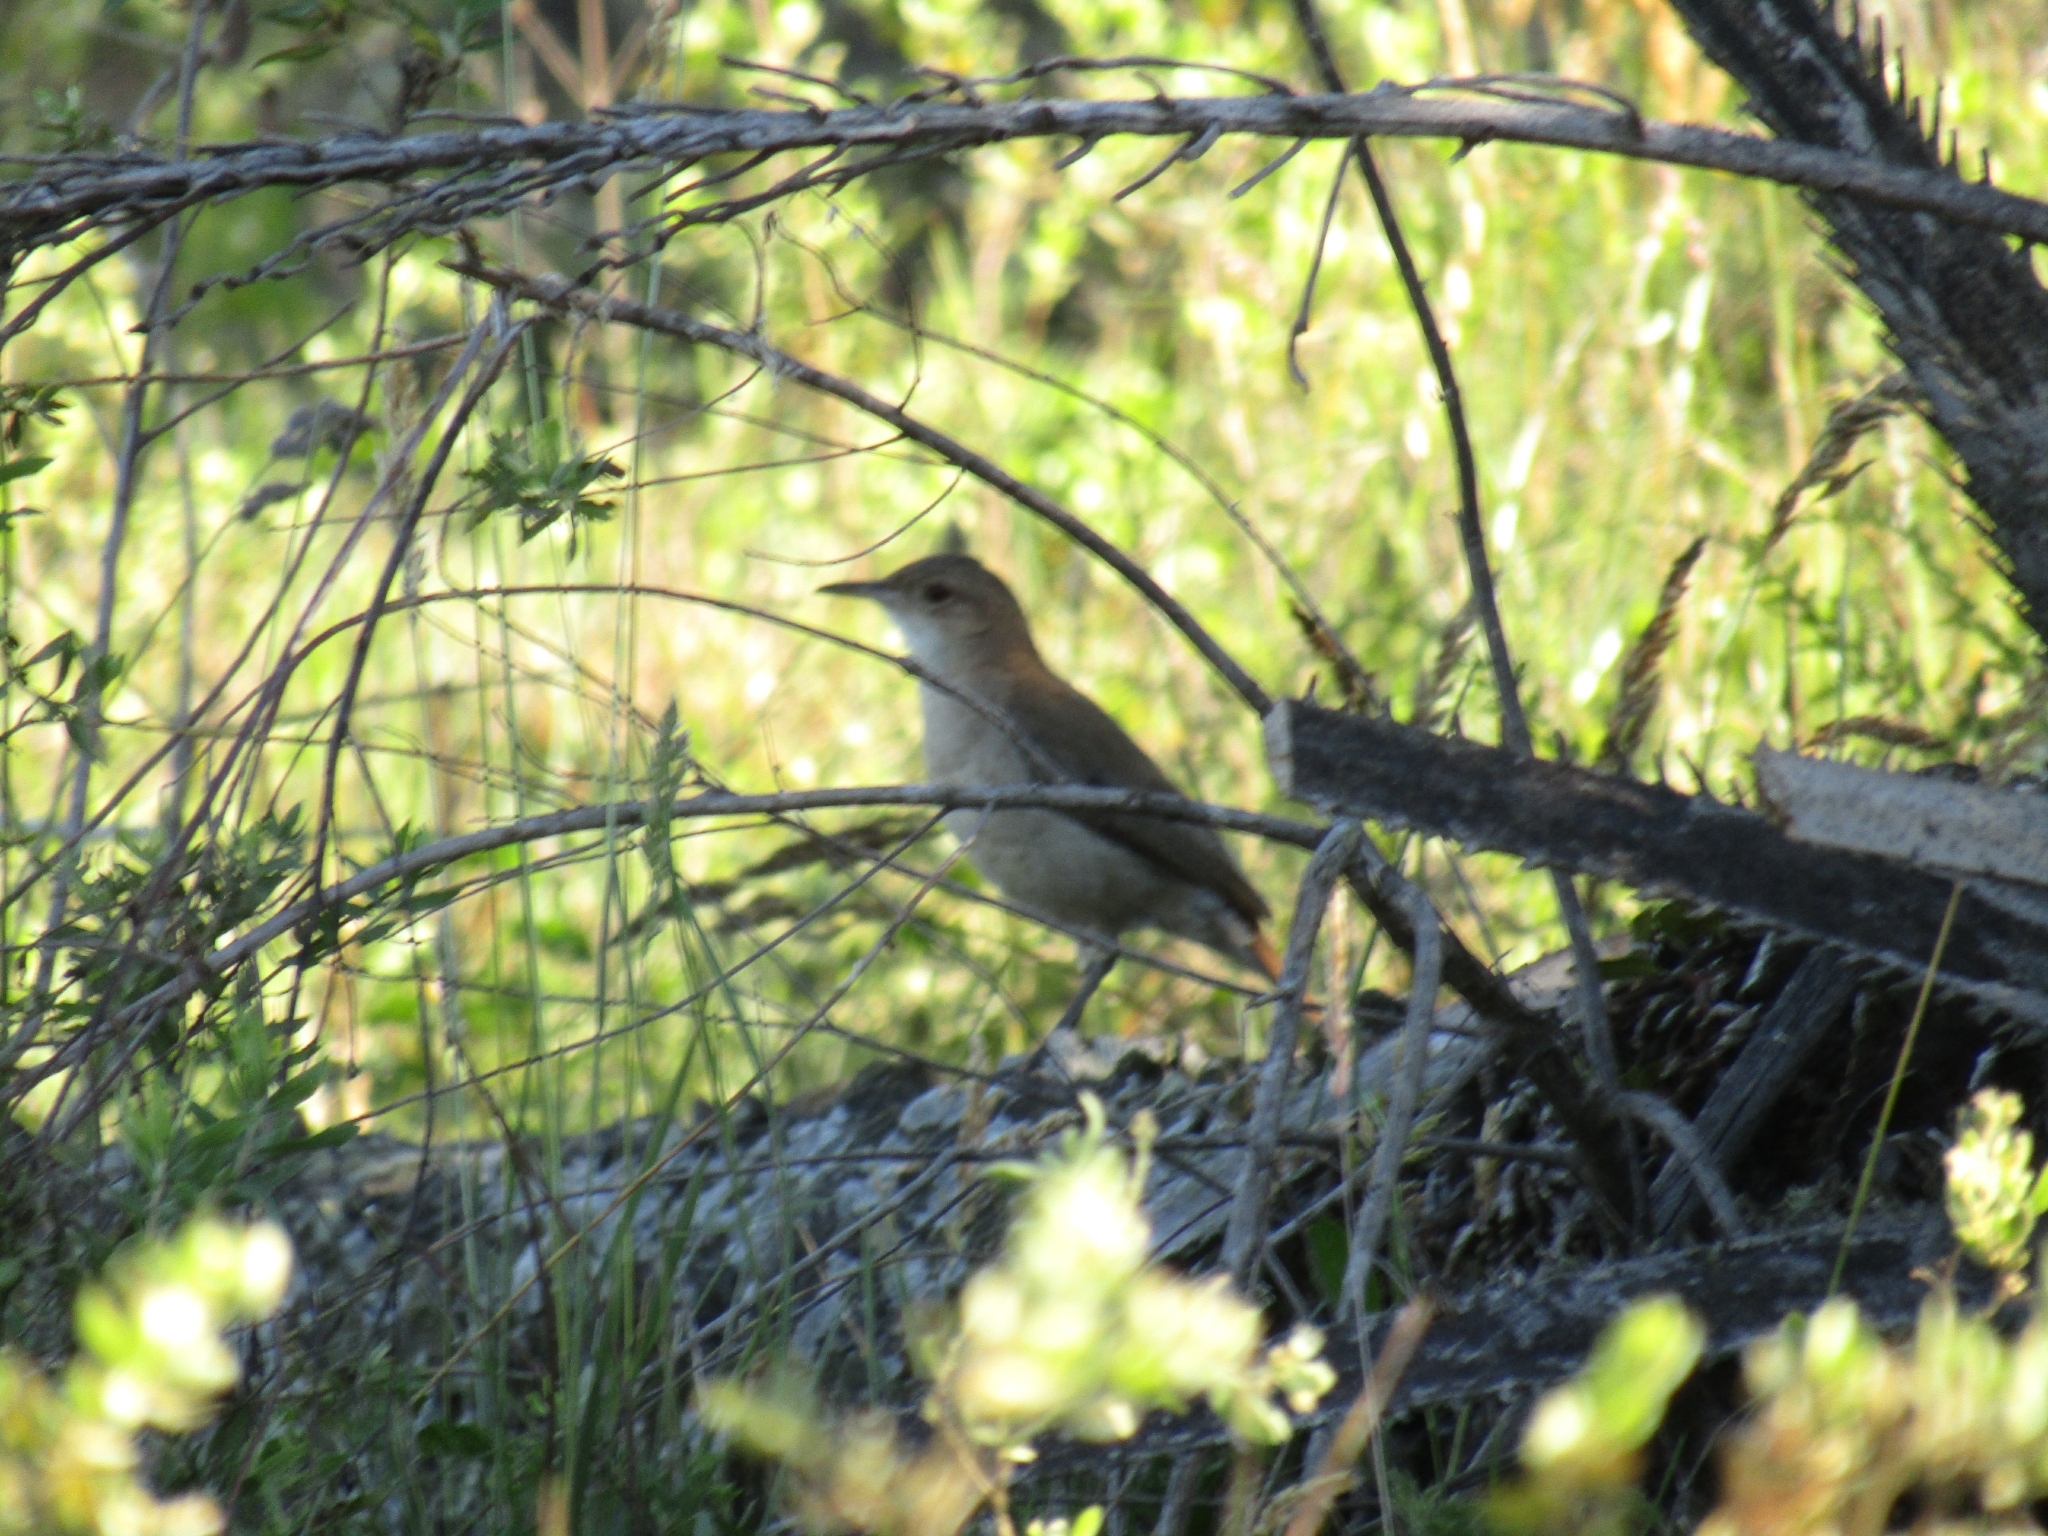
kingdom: Animalia
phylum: Chordata
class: Aves
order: Passeriformes
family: Furnariidae
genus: Furnarius
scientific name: Furnarius rufus
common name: Rufous hornero
